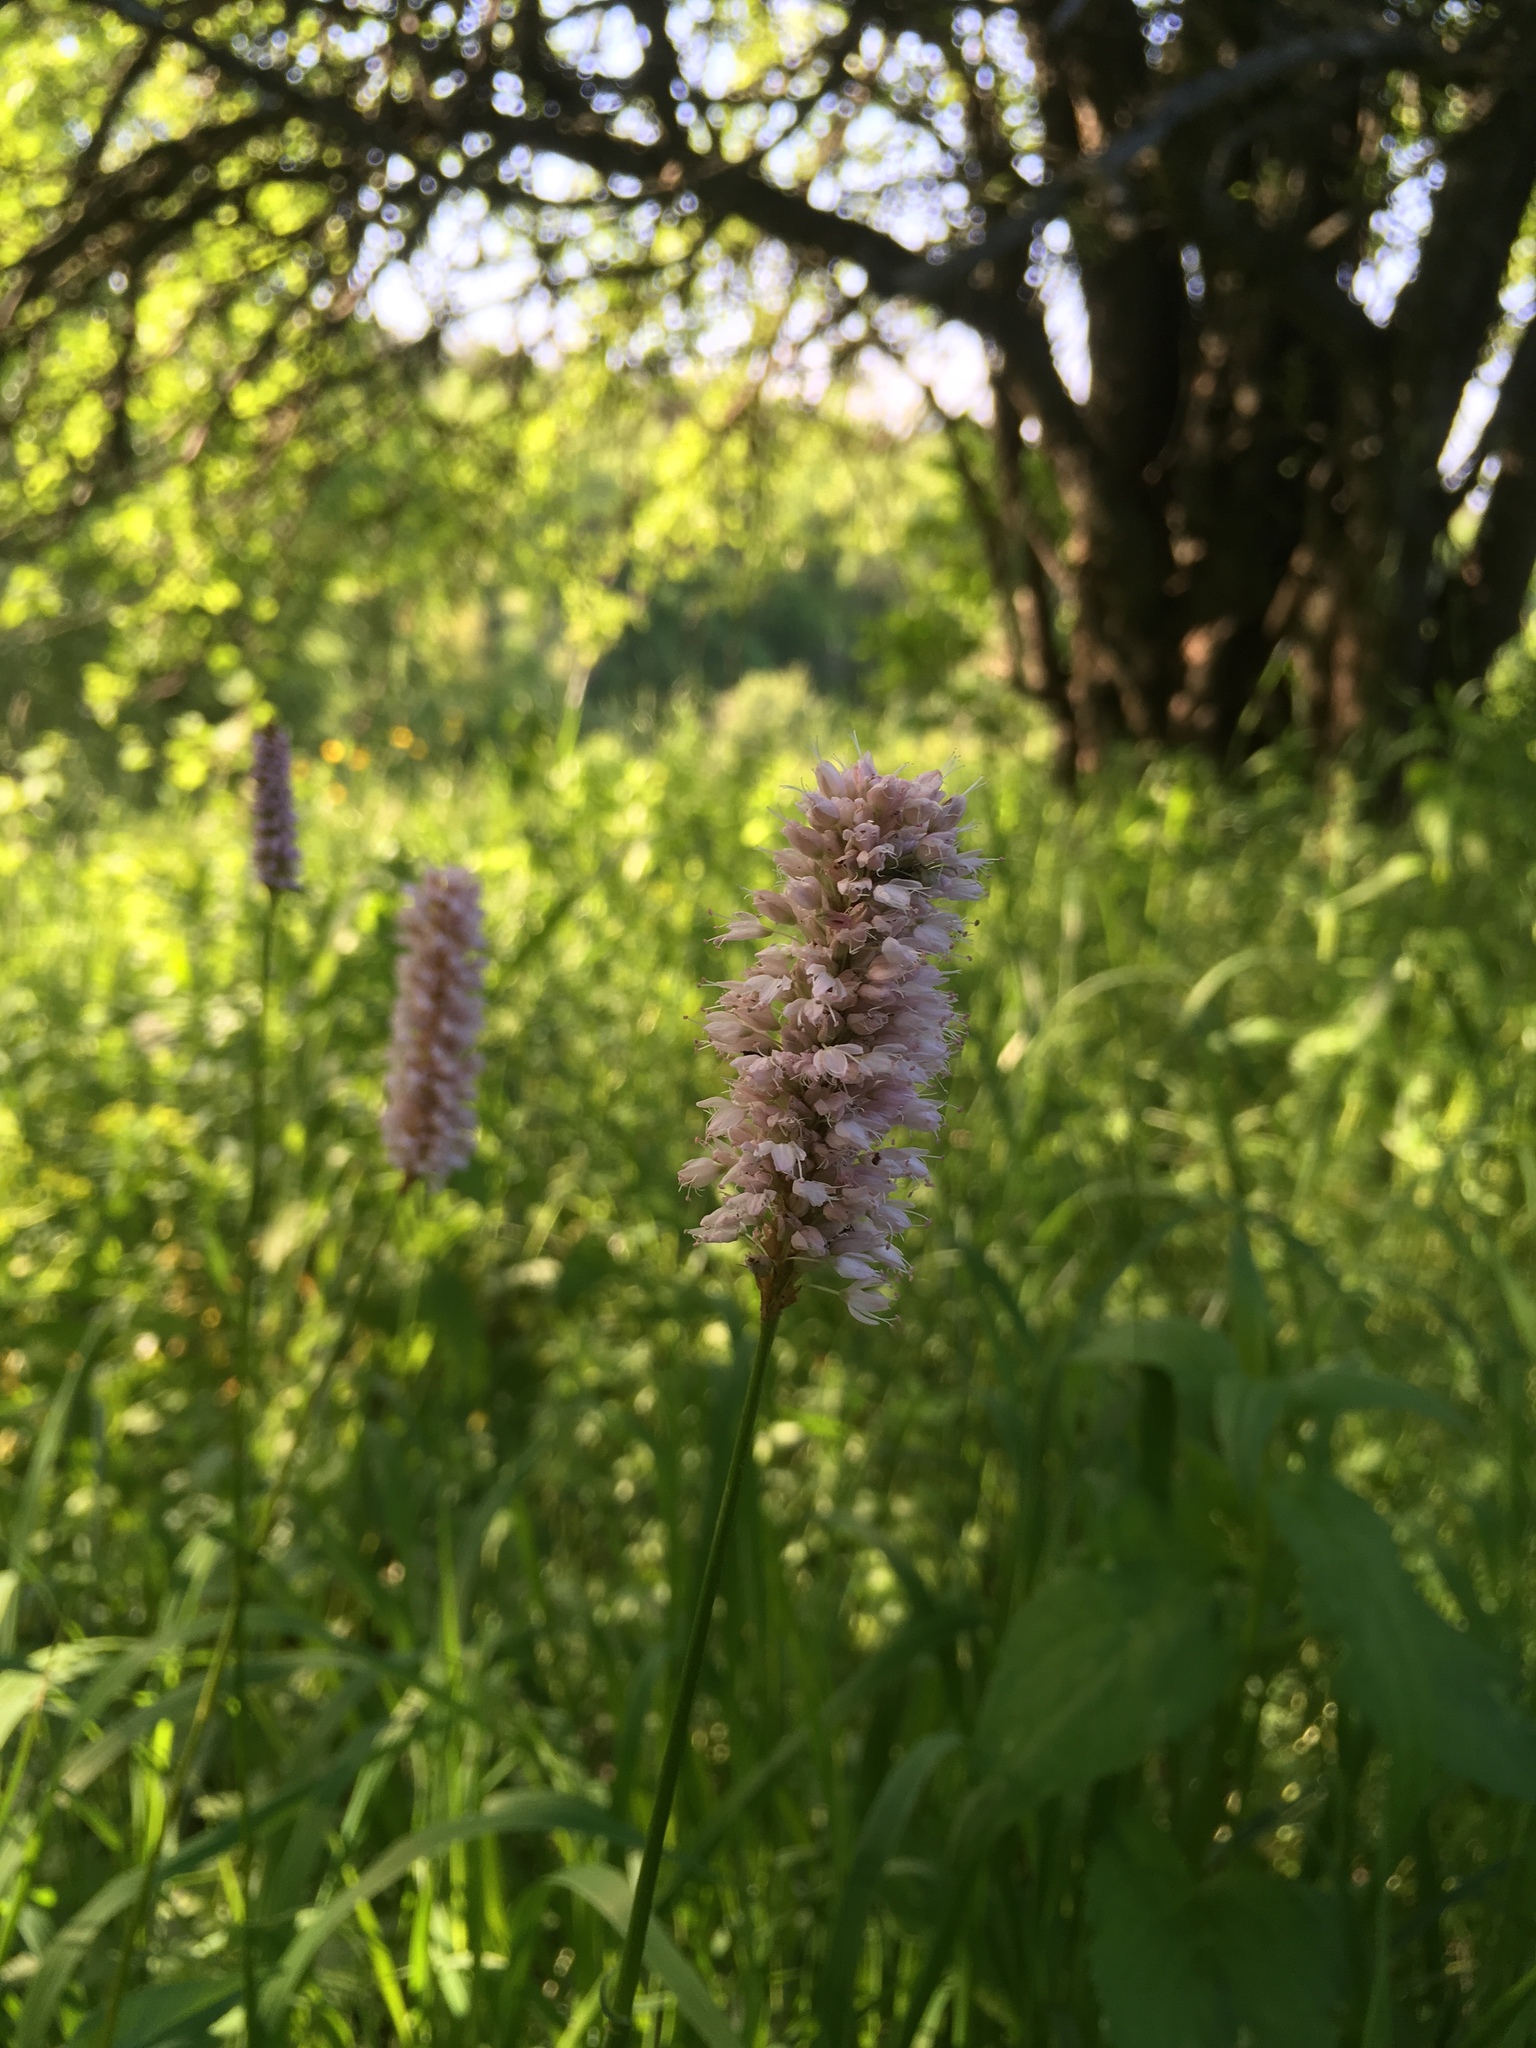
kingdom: Plantae
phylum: Tracheophyta
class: Magnoliopsida
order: Caryophyllales
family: Polygonaceae
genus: Bistorta
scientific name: Bistorta officinalis
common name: Common bistort
